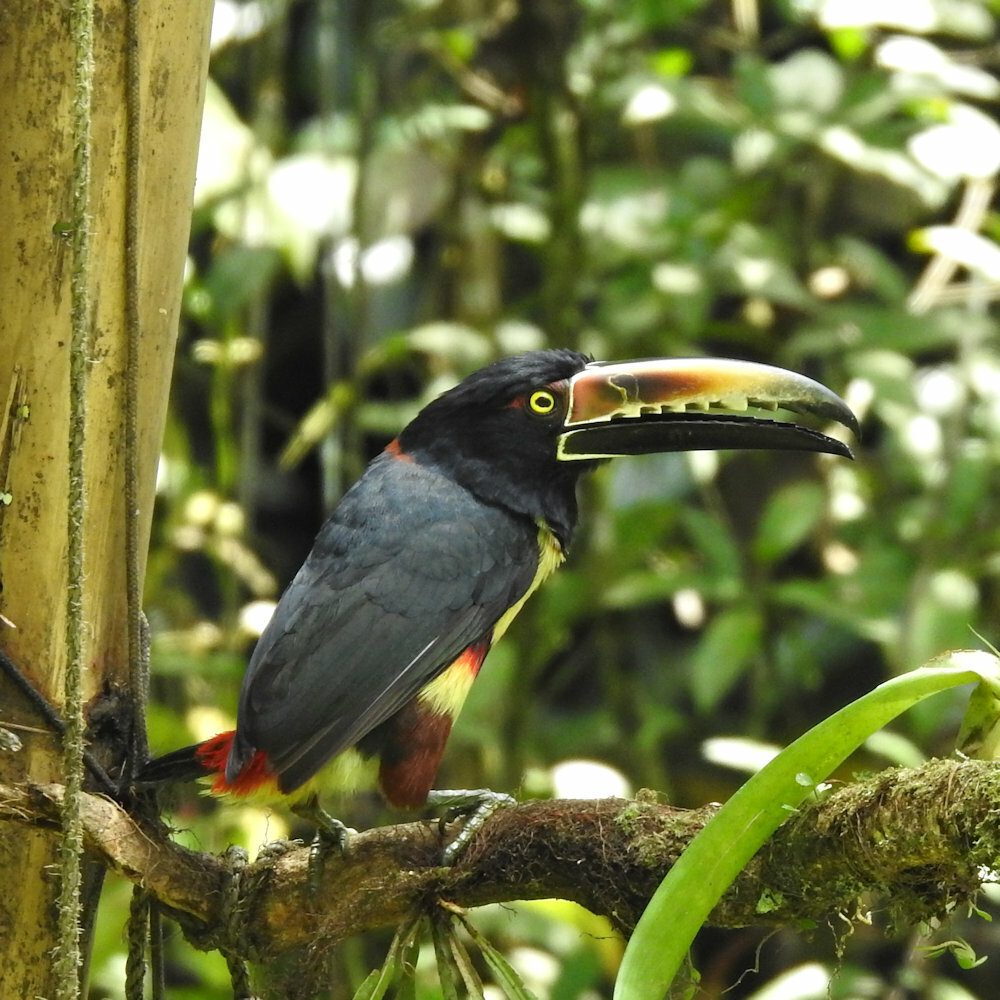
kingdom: Animalia
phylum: Chordata
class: Aves
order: Piciformes
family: Ramphastidae
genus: Pteroglossus
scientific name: Pteroglossus torquatus
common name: Collared aracari
